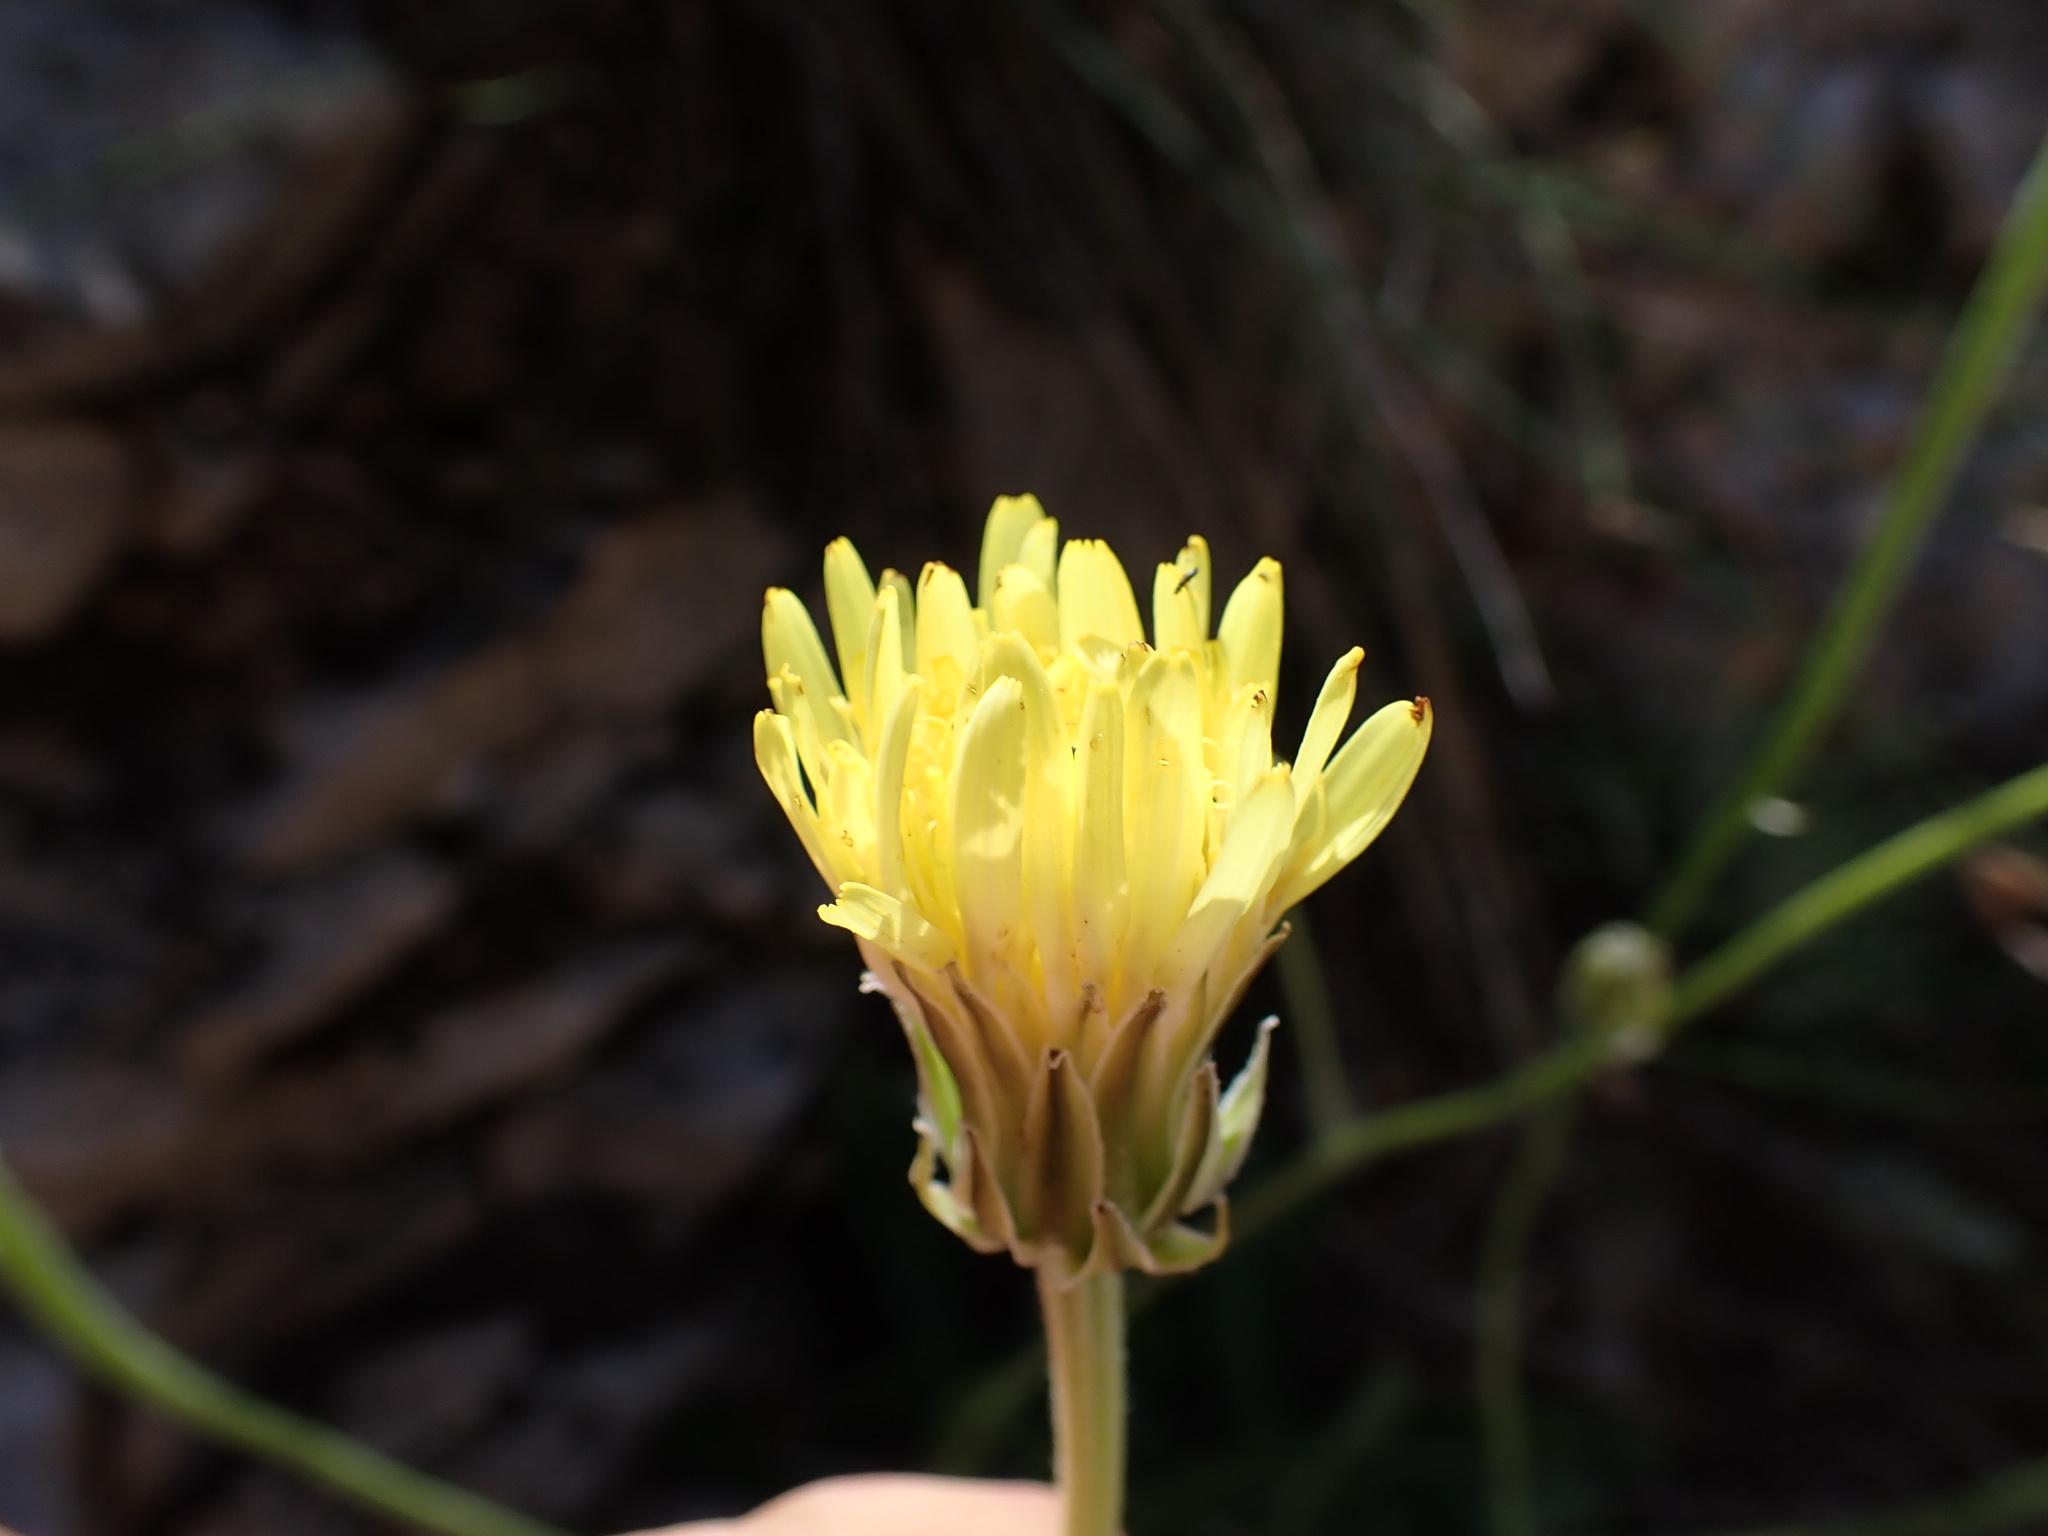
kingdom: Plantae
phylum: Tracheophyta
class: Magnoliopsida
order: Asterales
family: Asteraceae
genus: Crepis
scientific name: Crepis albida
